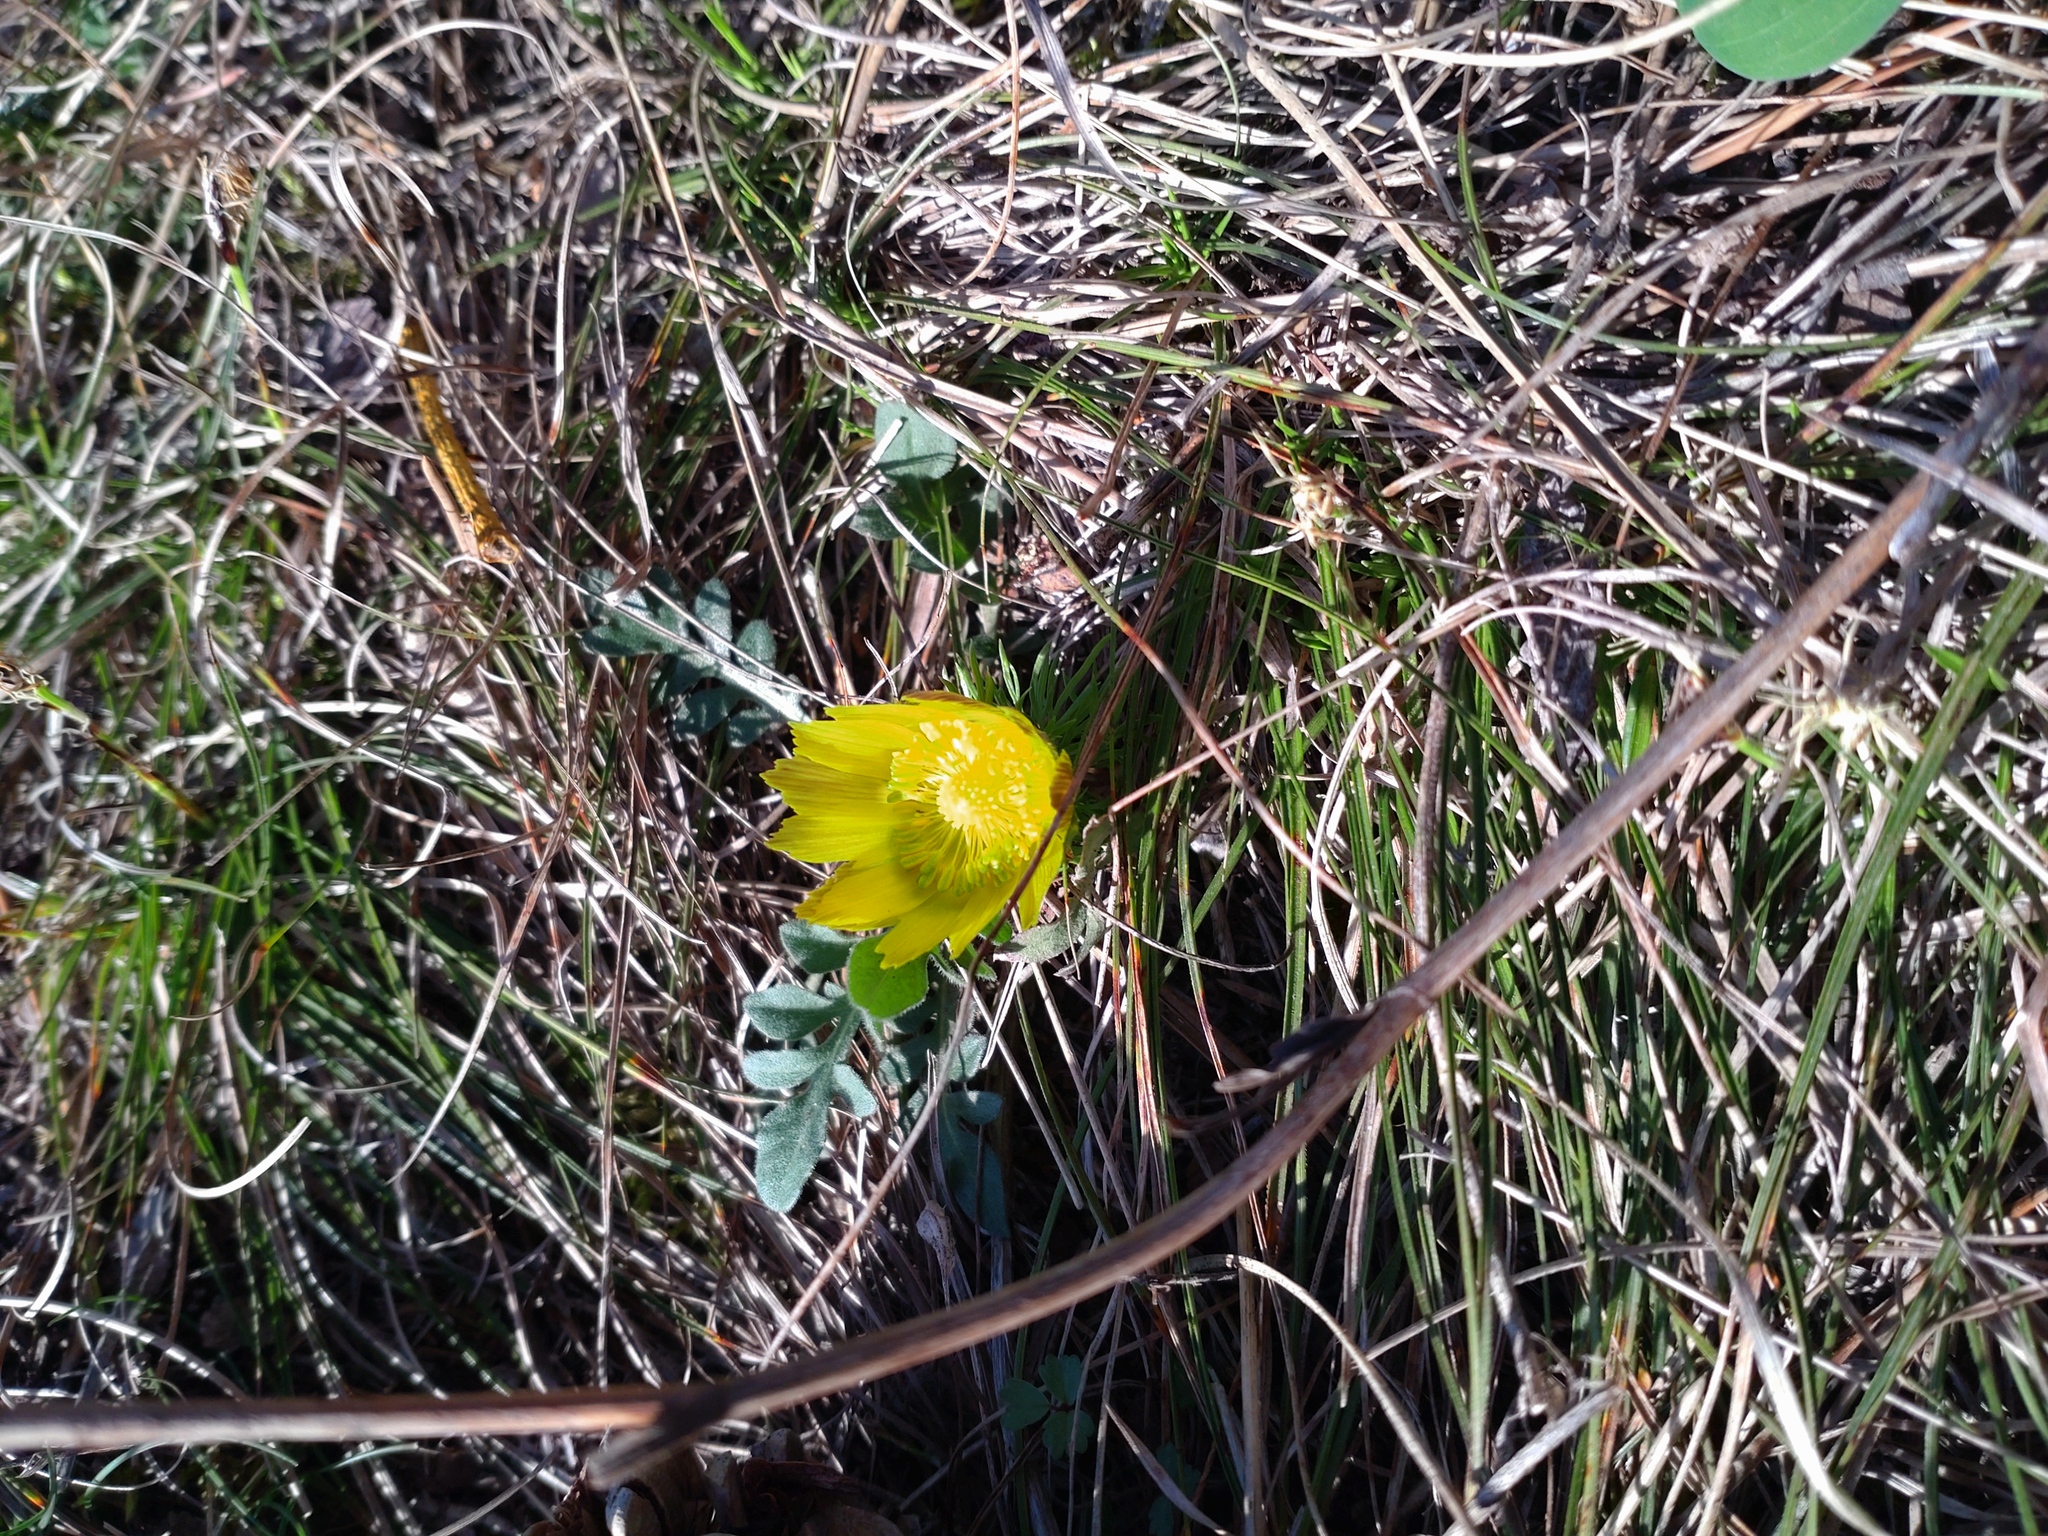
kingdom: Plantae
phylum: Tracheophyta
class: Magnoliopsida
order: Ranunculales
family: Ranunculaceae
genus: Adonis
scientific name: Adonis vernalis
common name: Yellow pheasants-eye
